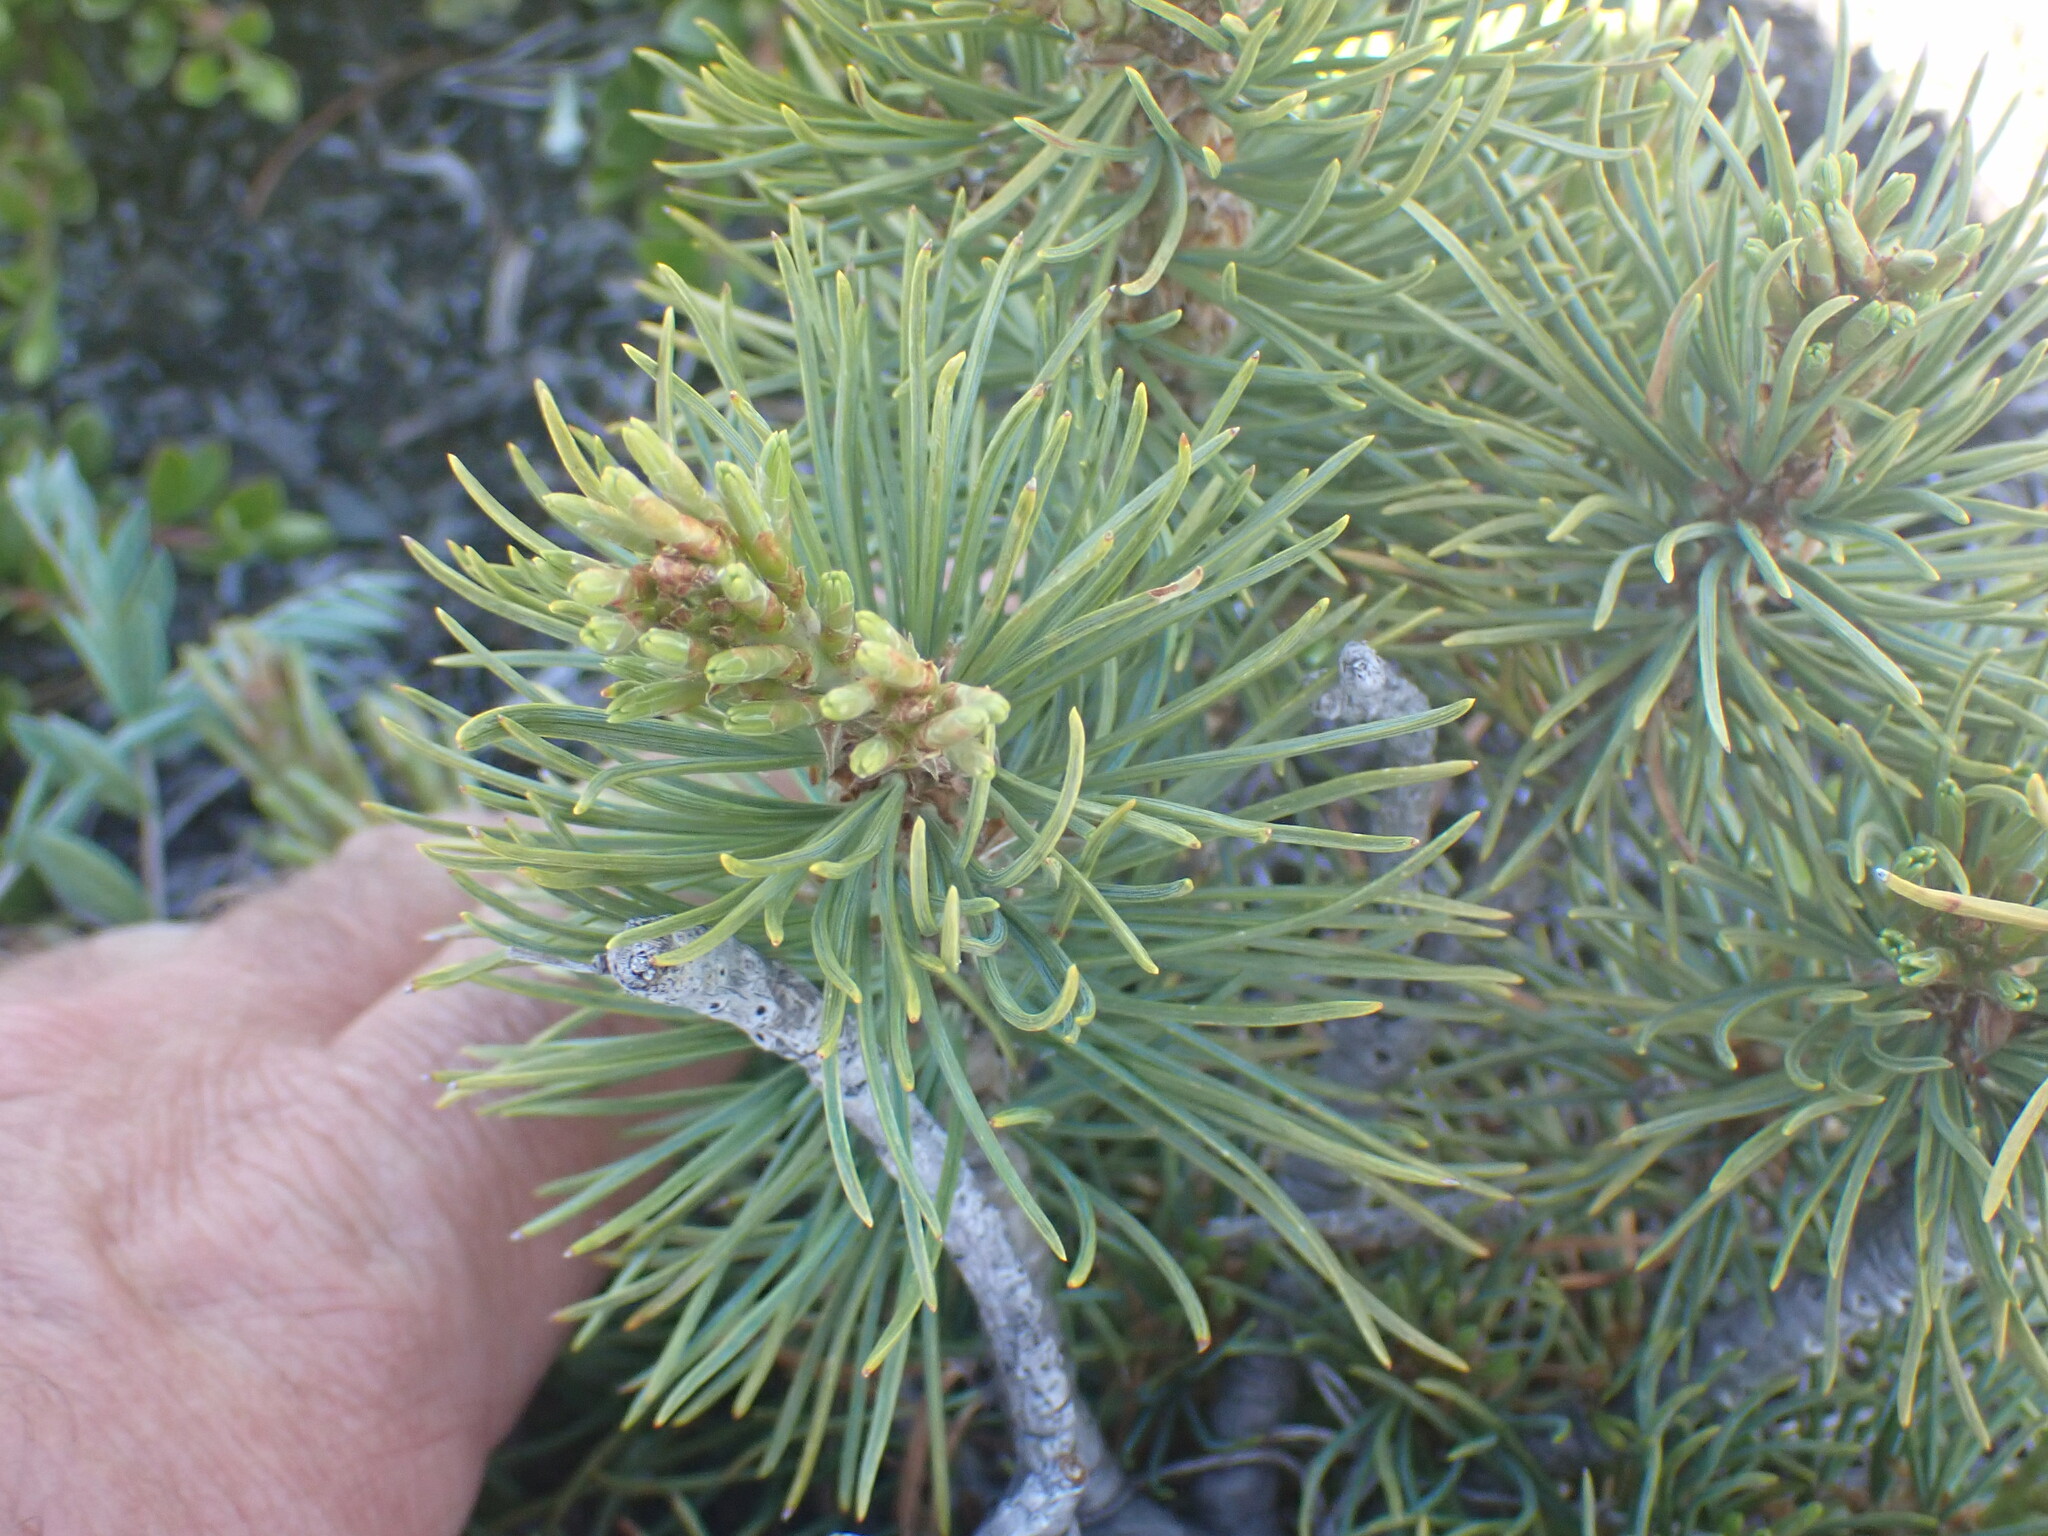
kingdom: Plantae
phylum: Tracheophyta
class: Pinopsida
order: Pinales
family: Pinaceae
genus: Pinus
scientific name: Pinus albicaulis
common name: Whitebark pine
